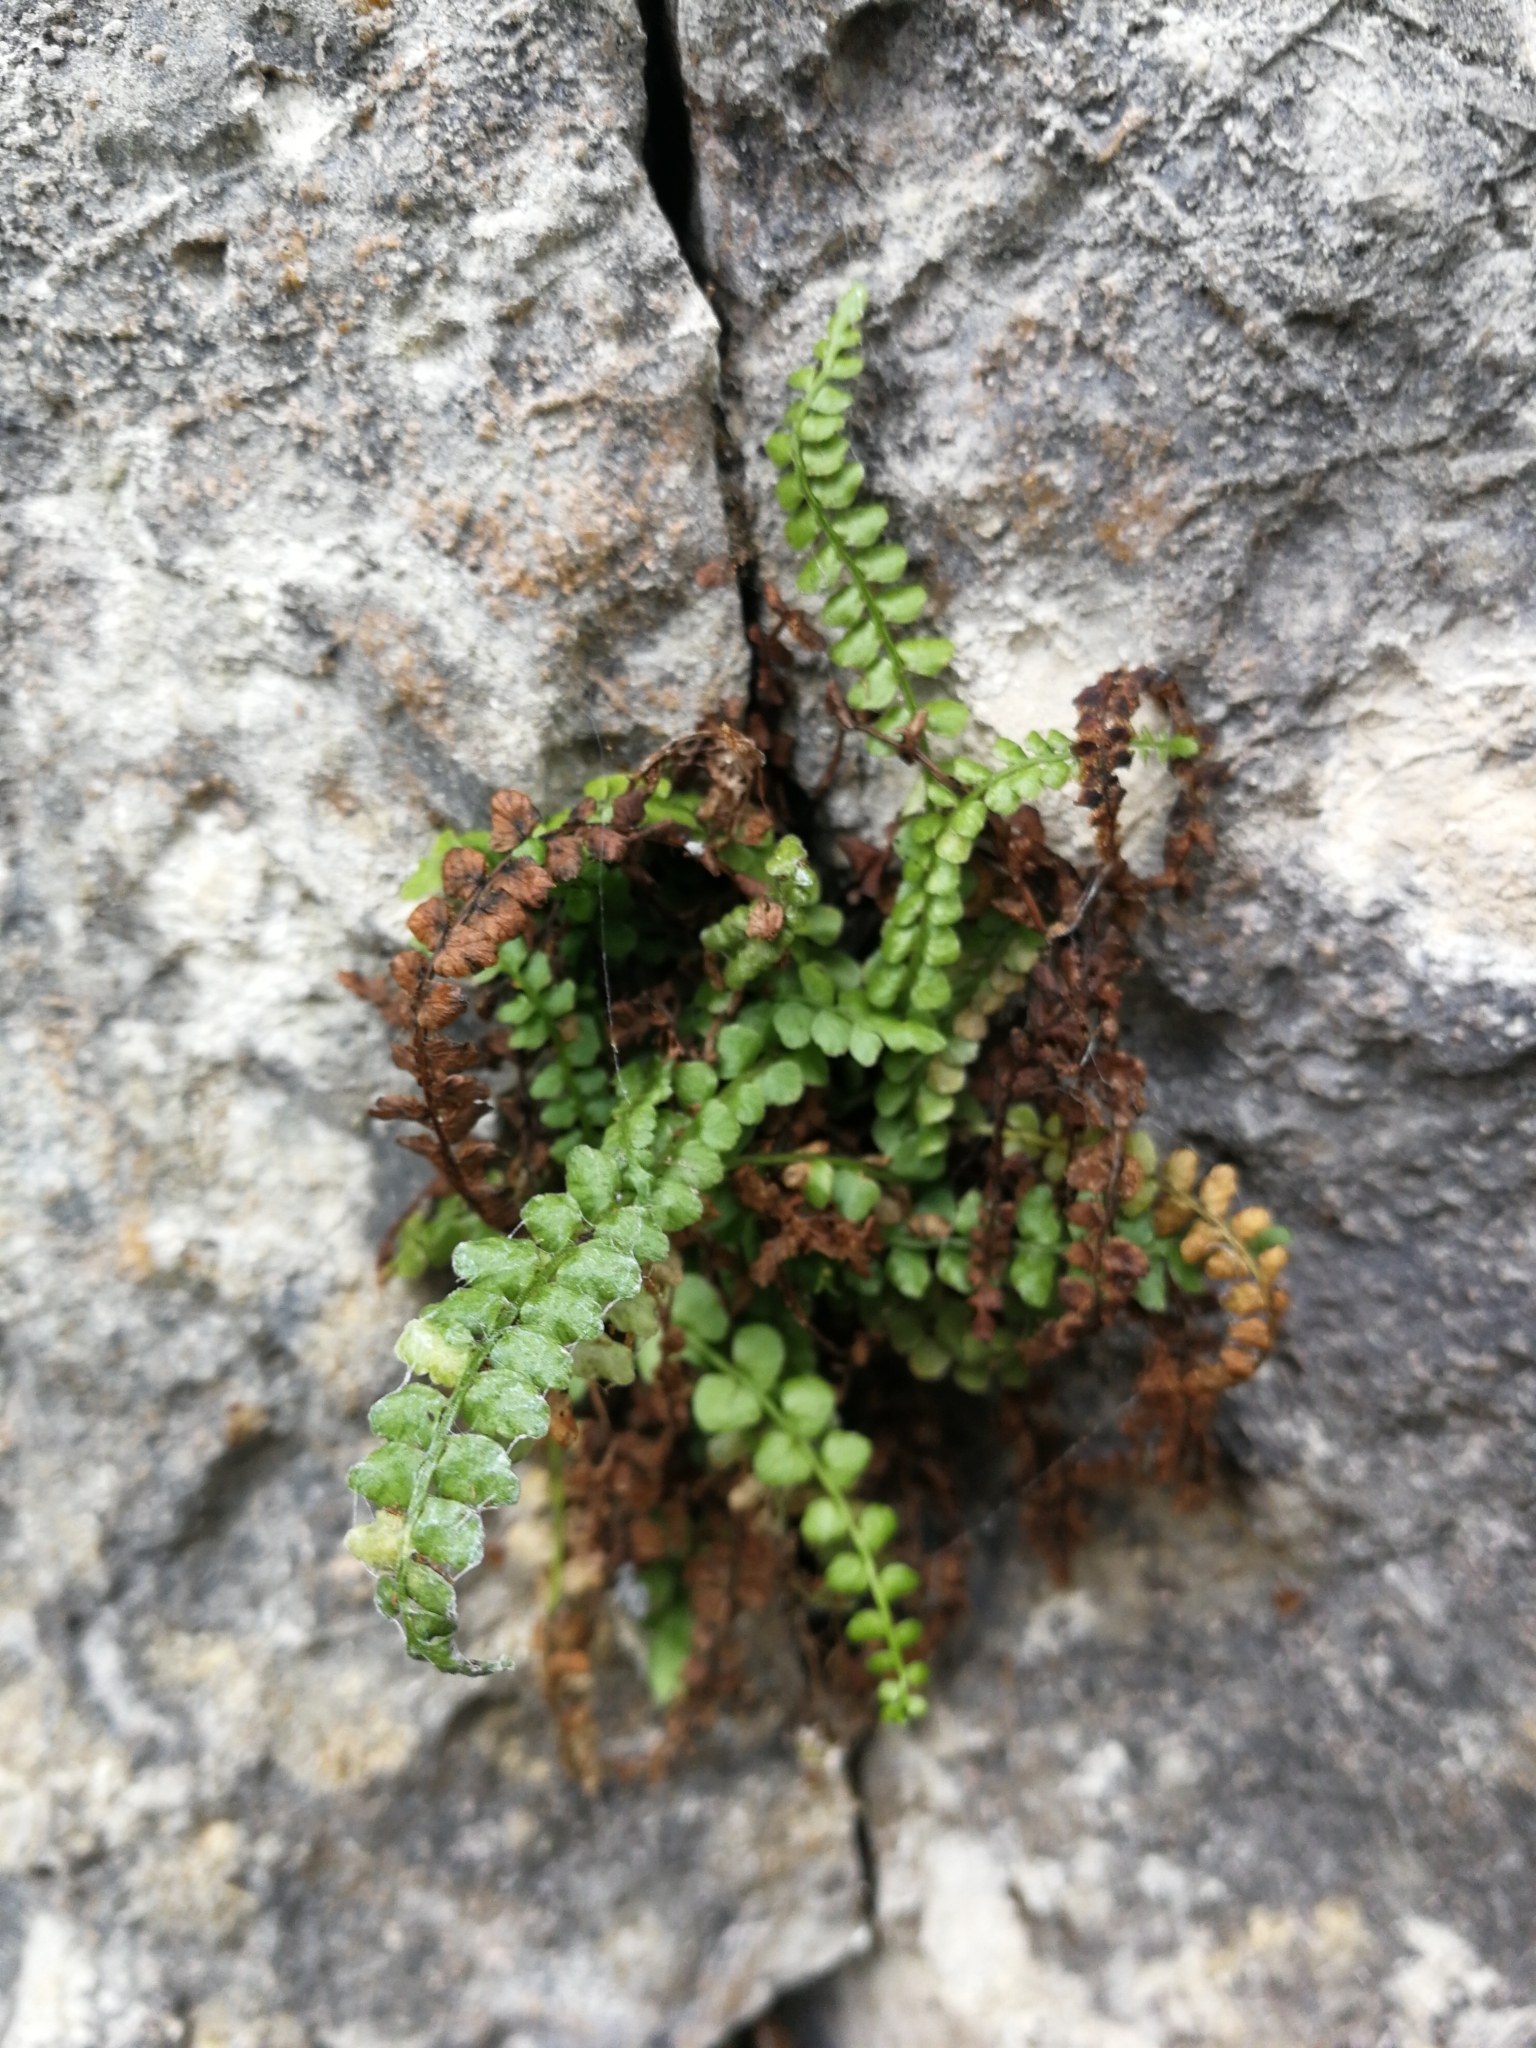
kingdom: Plantae
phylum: Tracheophyta
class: Polypodiopsida
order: Polypodiales
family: Aspleniaceae
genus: Asplenium
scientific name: Asplenium viride
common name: Green spleenwort
